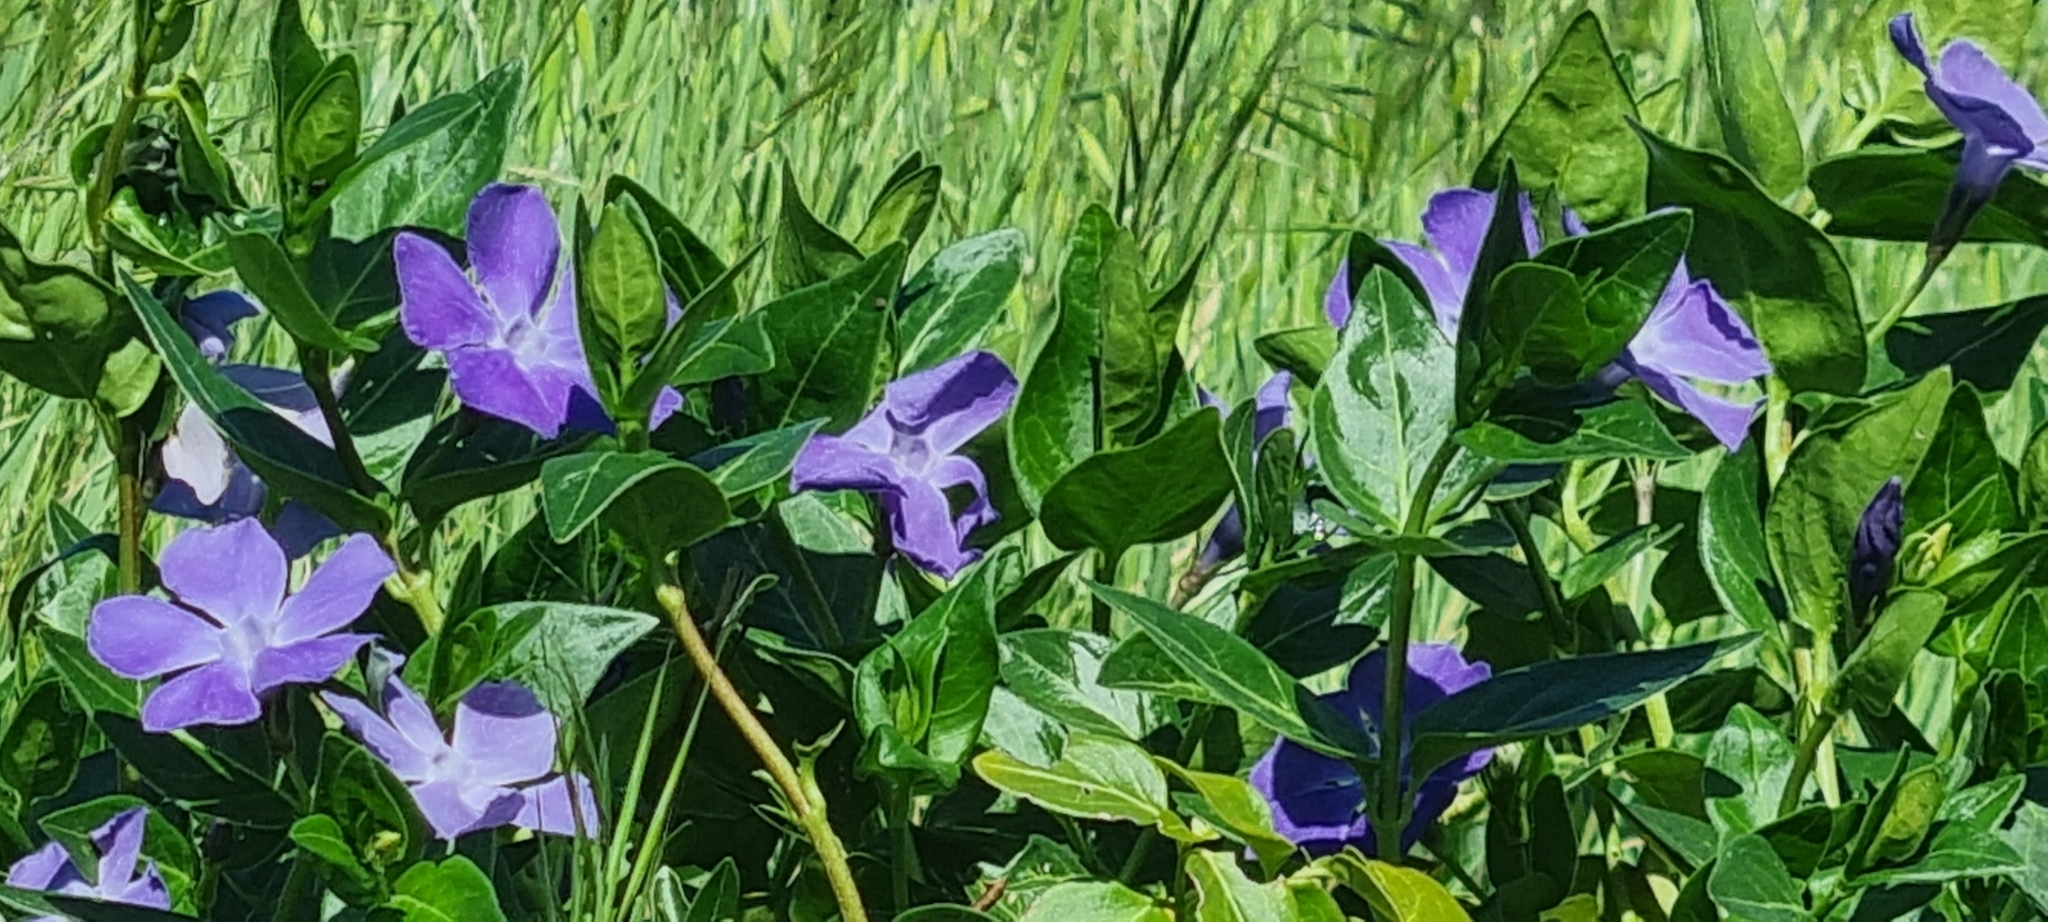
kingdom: Plantae
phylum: Tracheophyta
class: Magnoliopsida
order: Gentianales
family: Apocynaceae
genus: Vinca
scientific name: Vinca major
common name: Greater periwinkle
